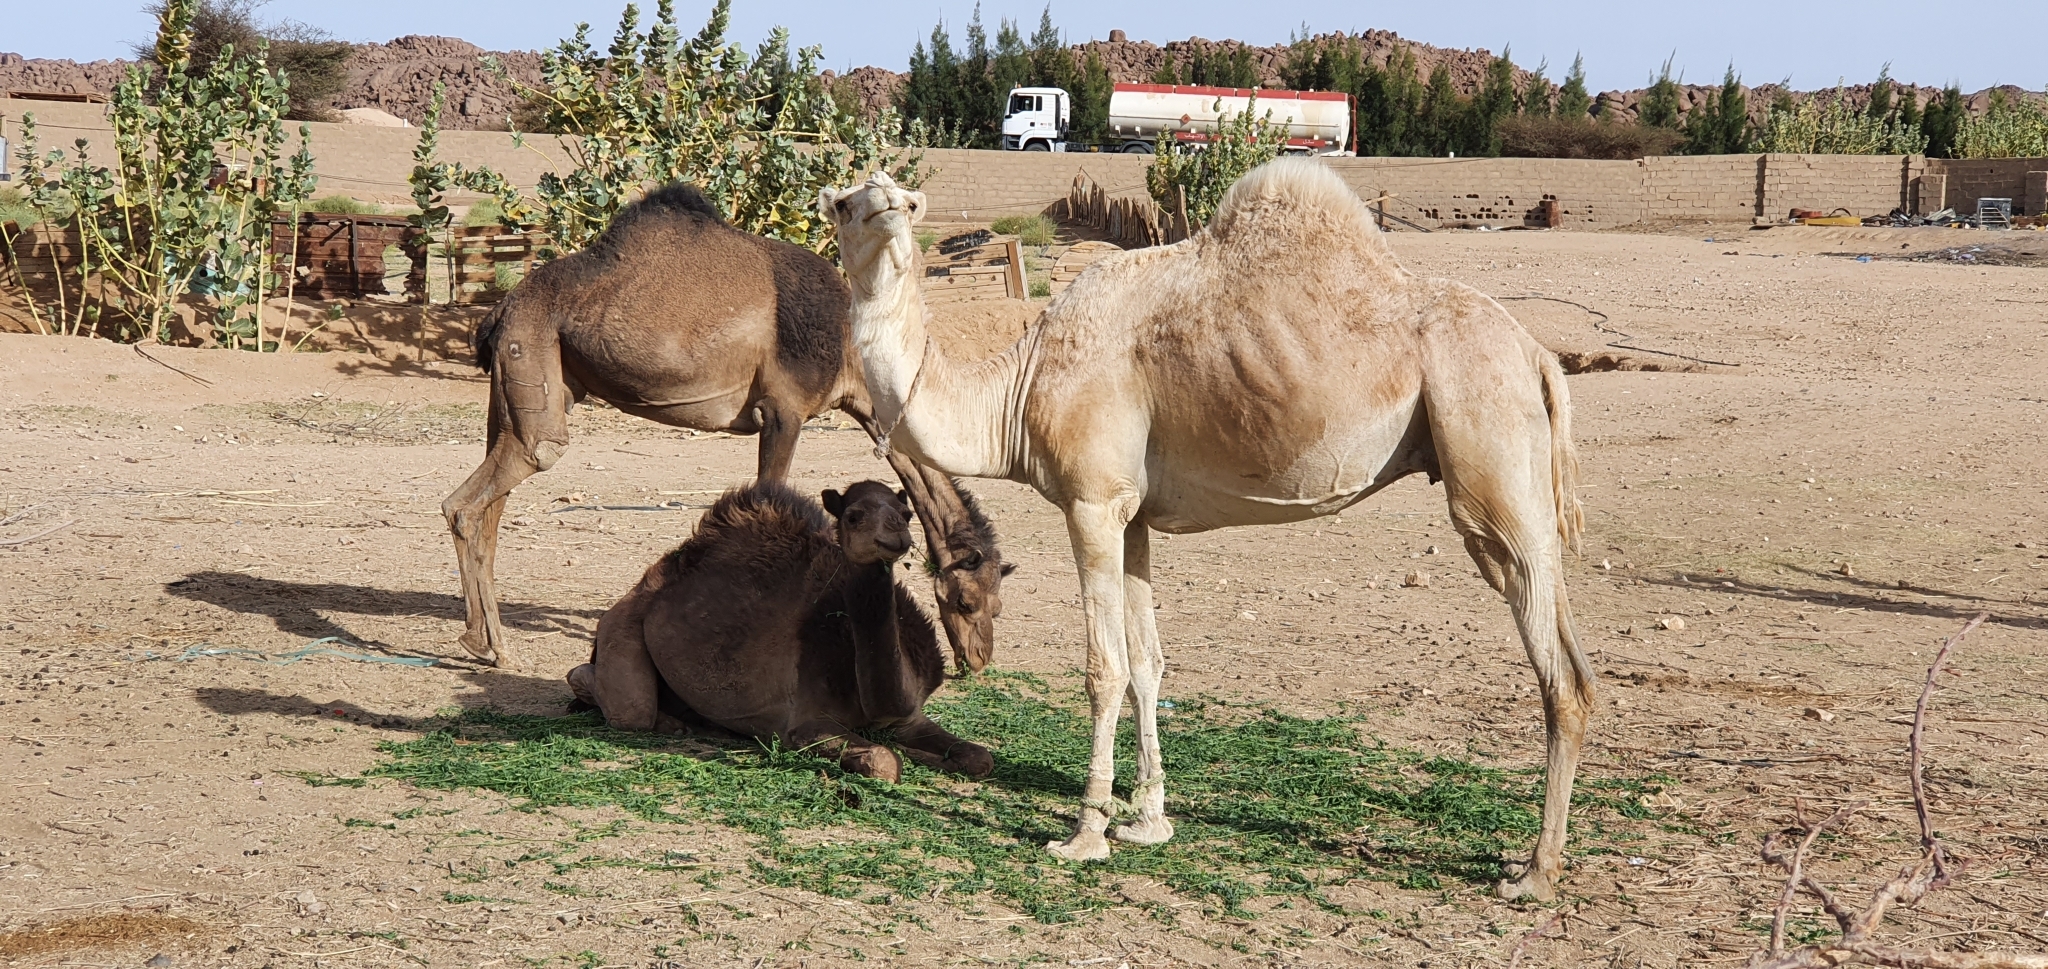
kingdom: Animalia
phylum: Chordata
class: Mammalia
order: Artiodactyla
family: Camelidae
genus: Camelus
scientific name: Camelus dromedarius
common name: One-humped camel
